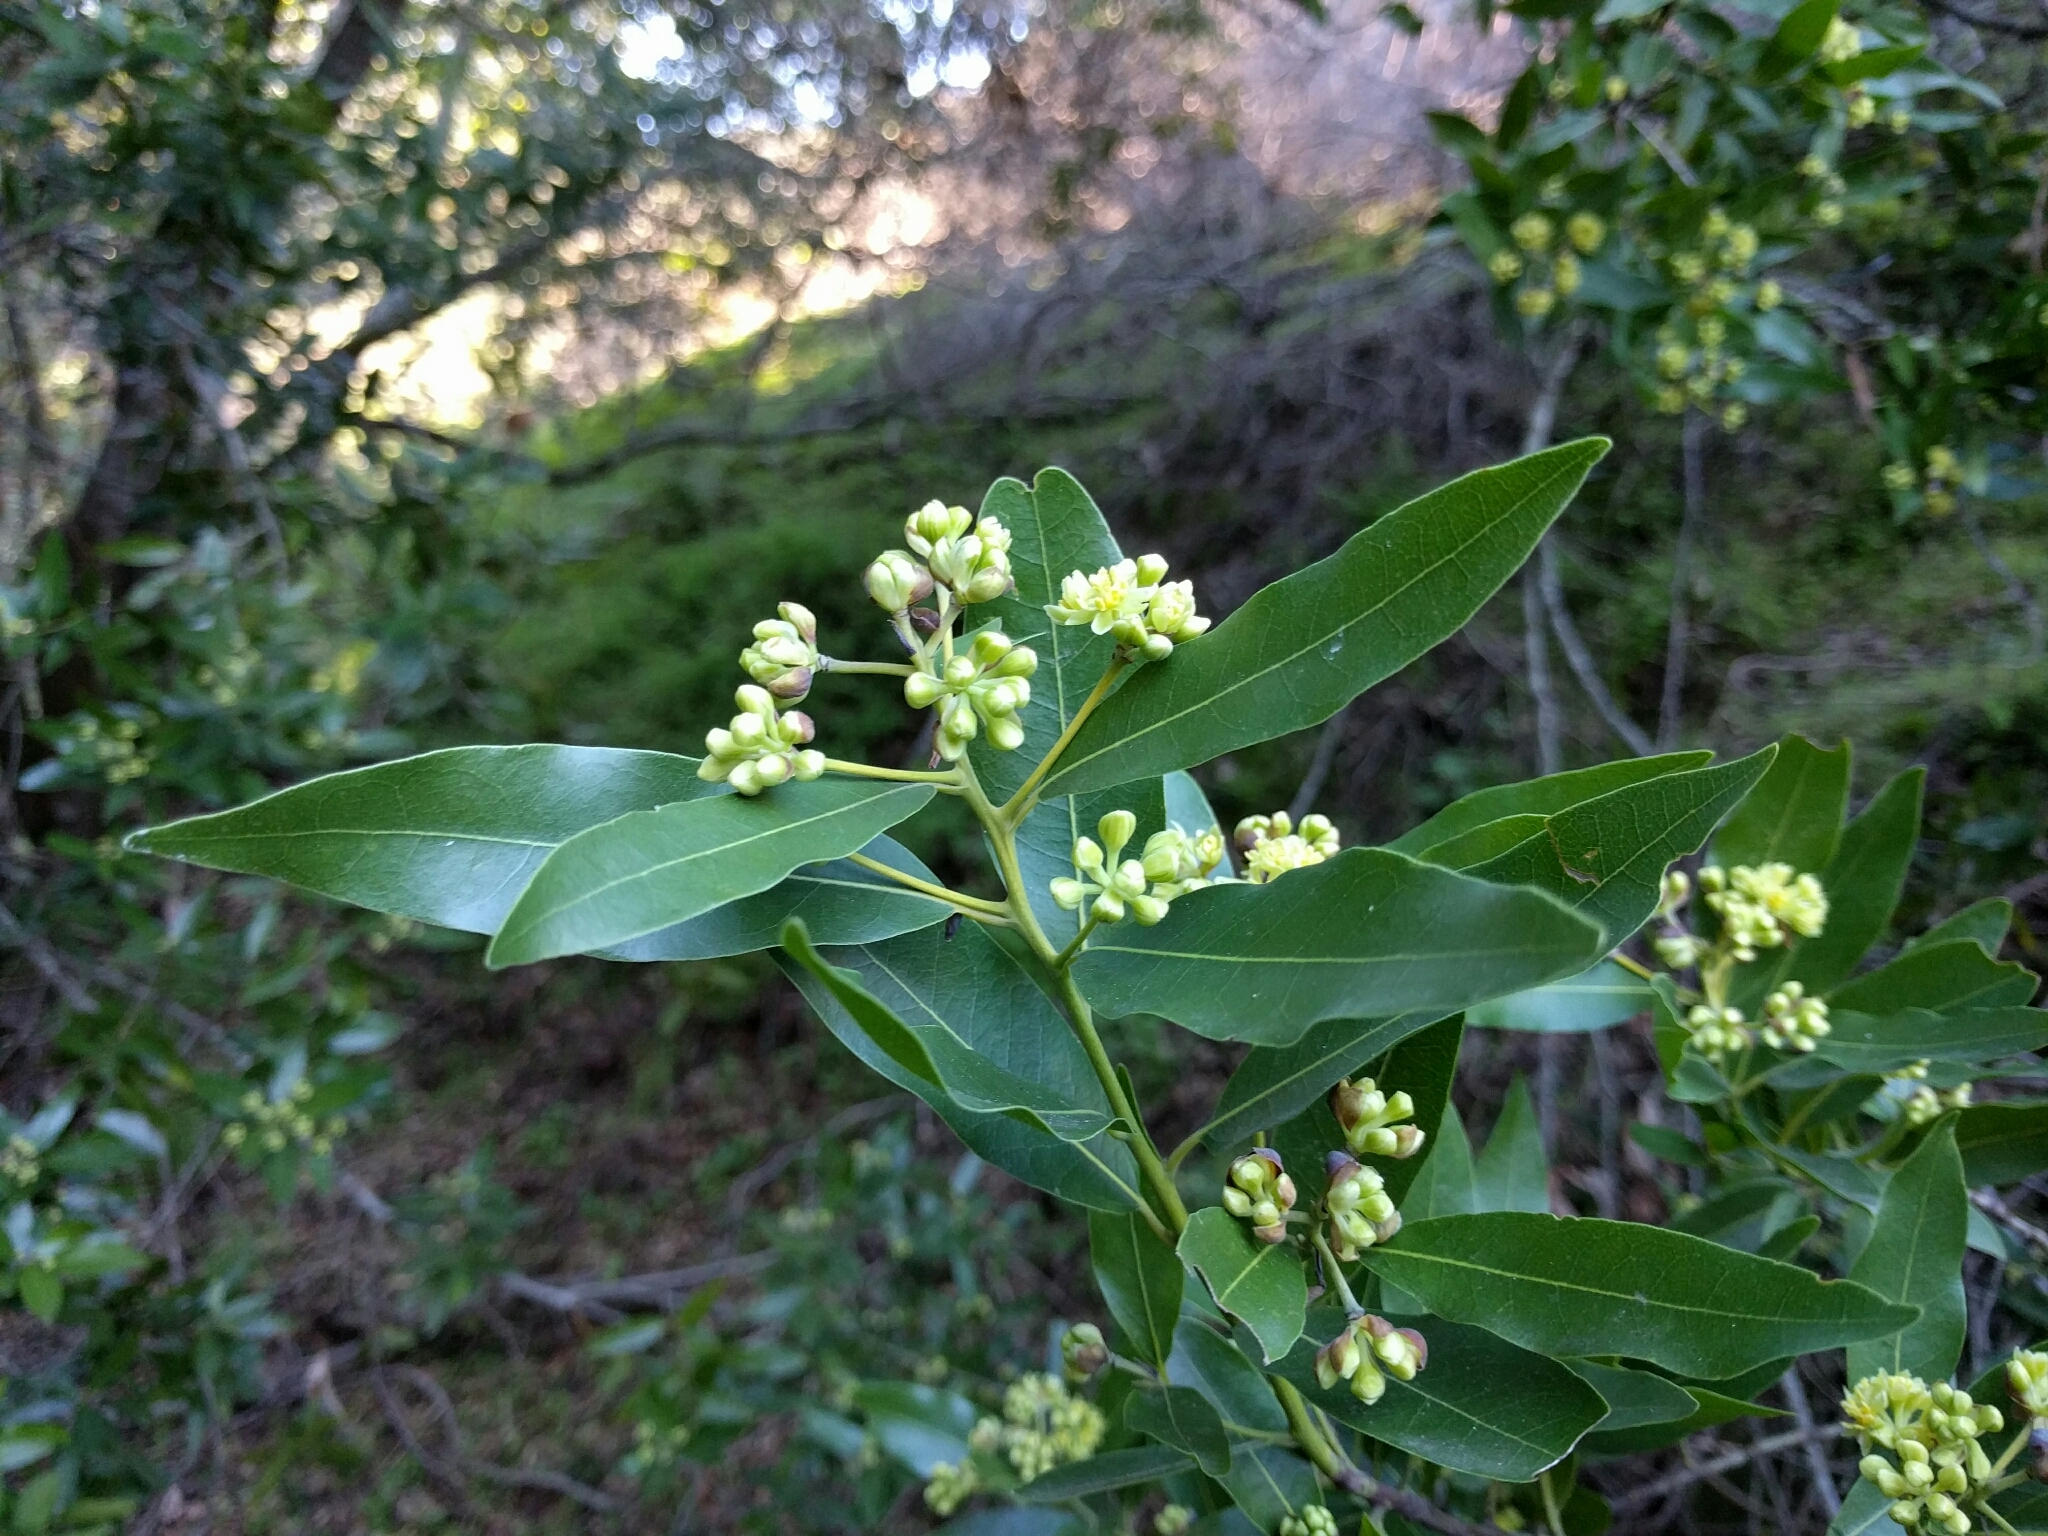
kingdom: Plantae
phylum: Tracheophyta
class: Magnoliopsida
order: Laurales
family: Lauraceae
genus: Umbellularia
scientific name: Umbellularia californica
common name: California bay
